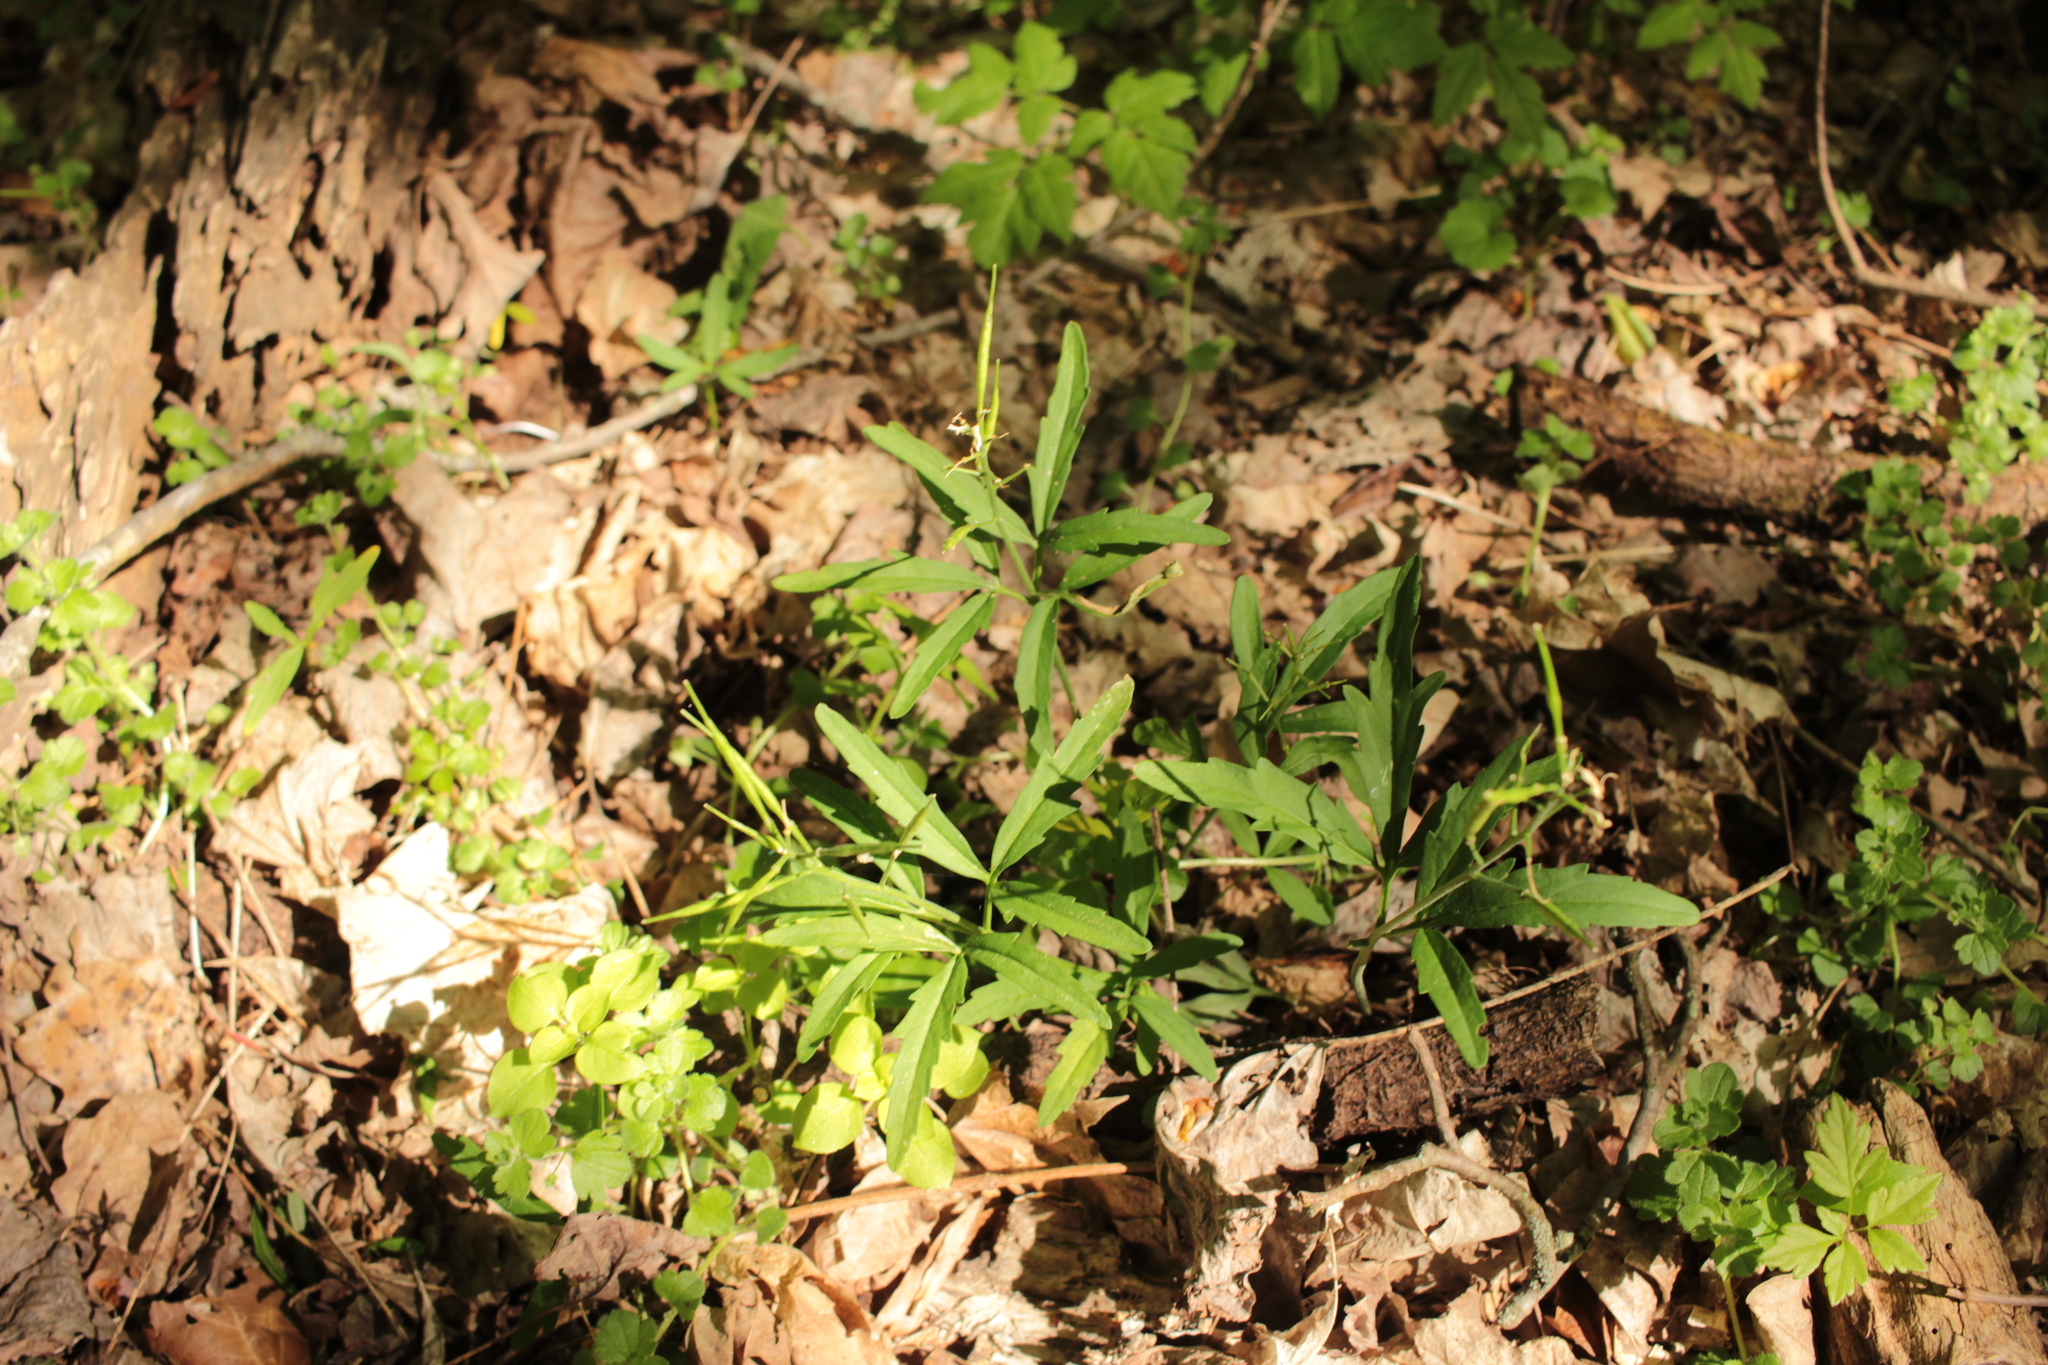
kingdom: Plantae
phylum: Tracheophyta
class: Magnoliopsida
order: Brassicales
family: Brassicaceae
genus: Cardamine
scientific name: Cardamine concatenata
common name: Cut-leaf toothcup
